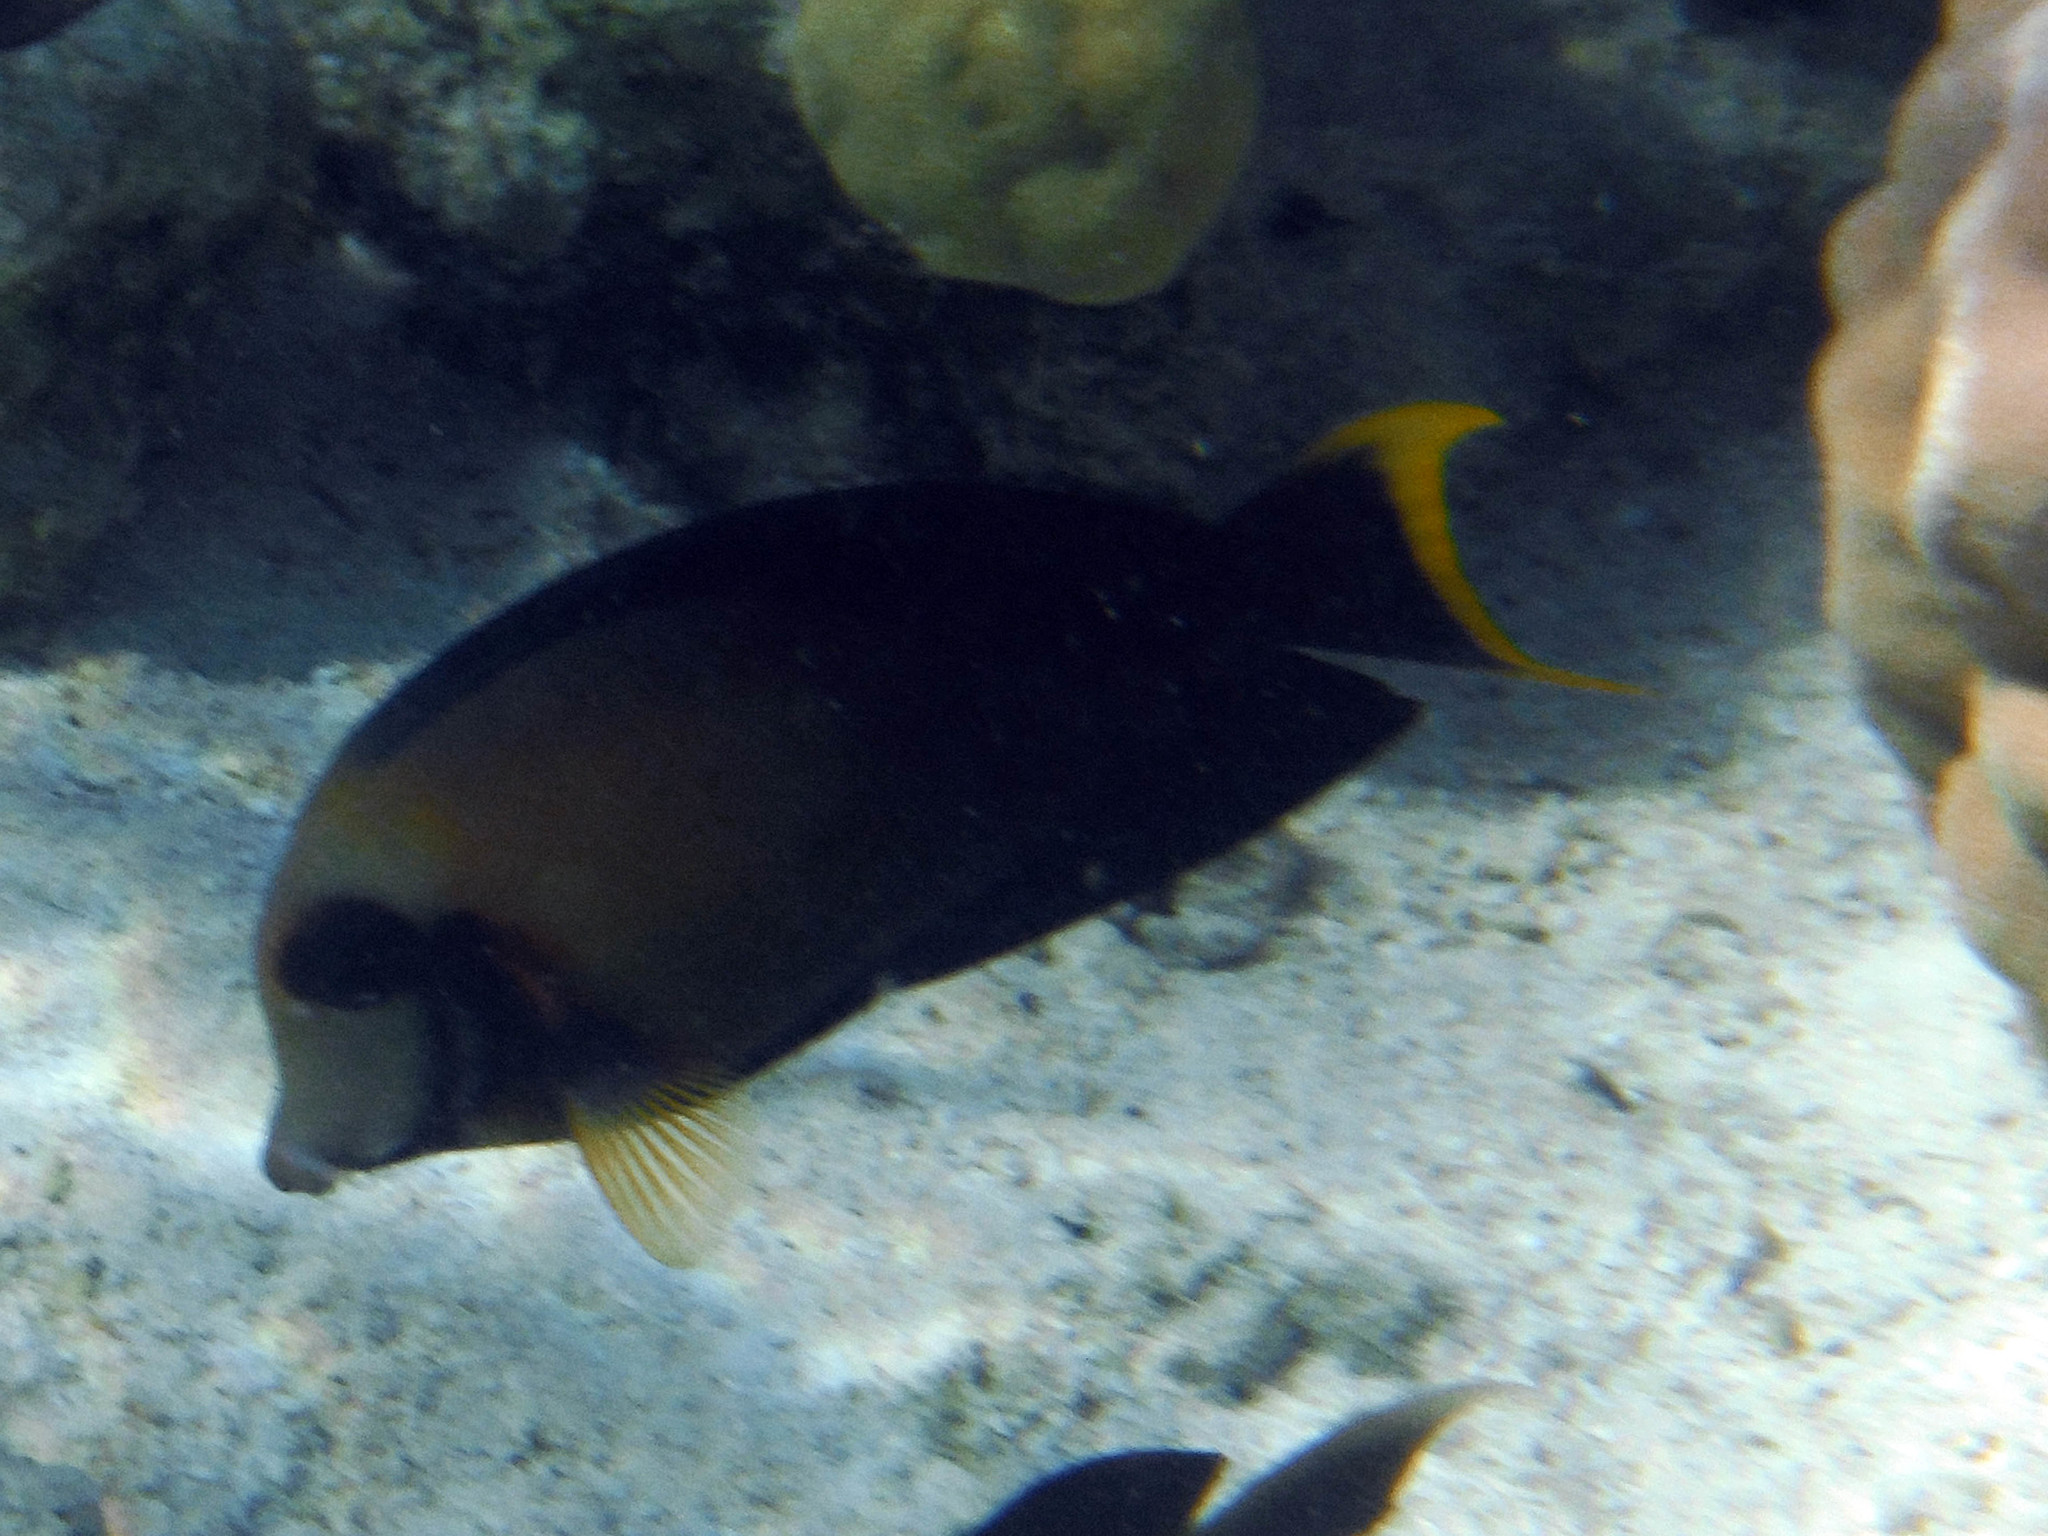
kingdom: Animalia
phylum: Chordata
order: Perciformes
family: Acanthuridae
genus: Acanthurus
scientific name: Acanthurus pyroferus
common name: Chocolate surgeonfish
